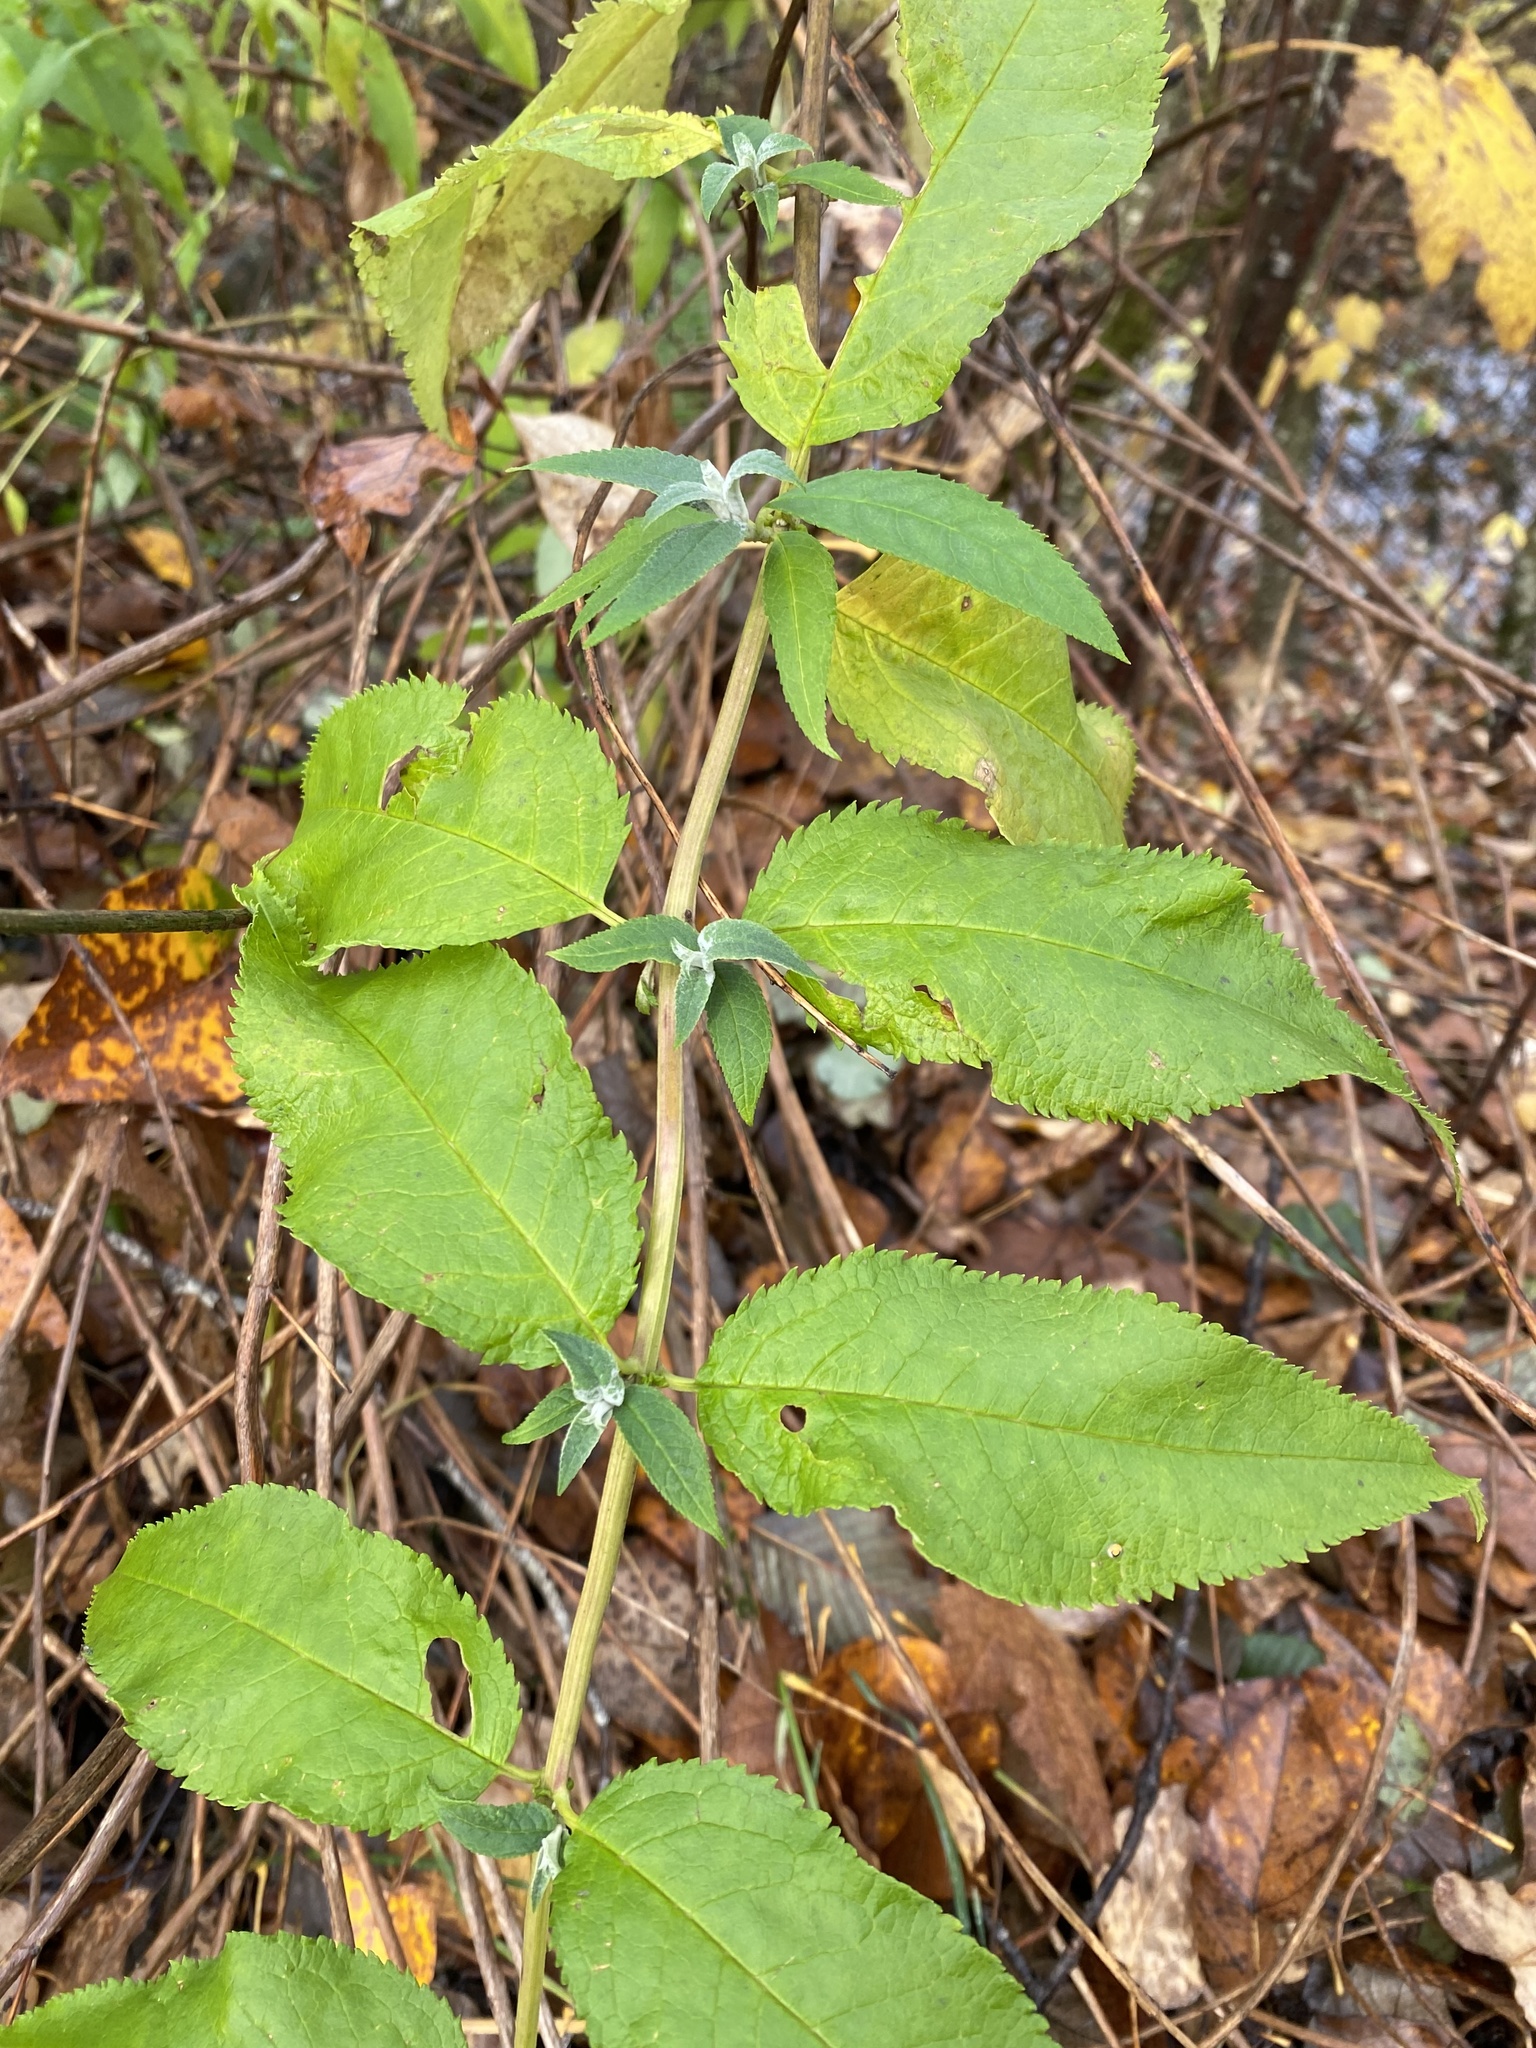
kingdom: Plantae
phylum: Tracheophyta
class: Magnoliopsida
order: Lamiales
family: Scrophulariaceae
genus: Buddleja
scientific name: Buddleja davidii
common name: Butterfly-bush
